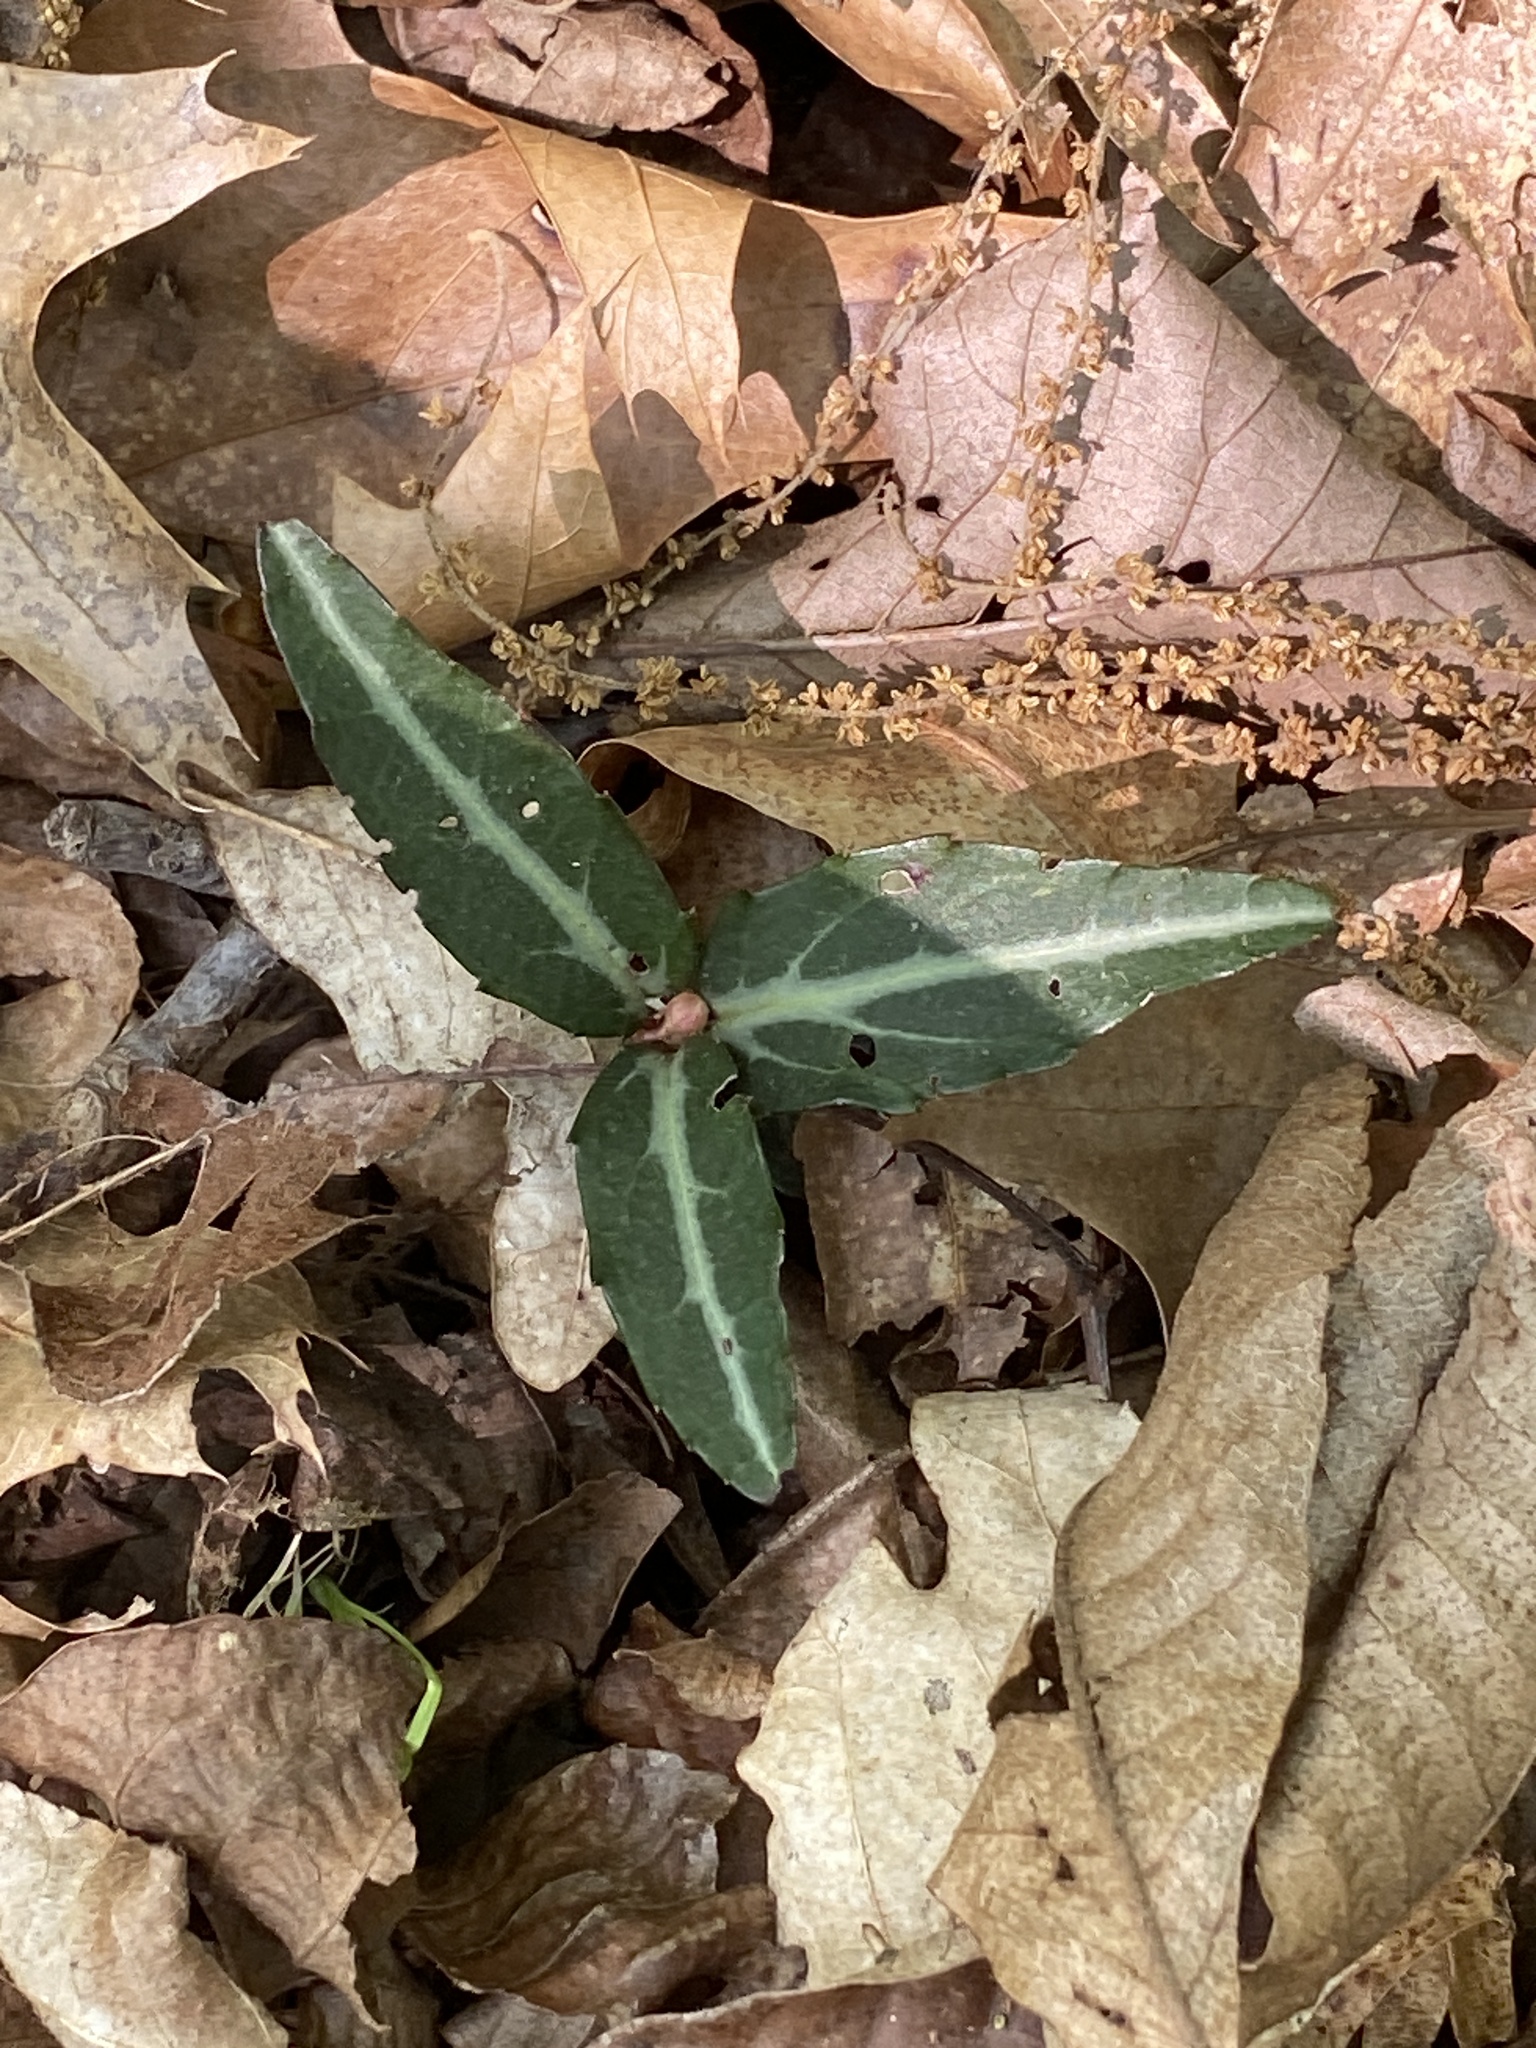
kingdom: Plantae
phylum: Tracheophyta
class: Magnoliopsida
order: Ericales
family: Ericaceae
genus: Chimaphila
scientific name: Chimaphila maculata
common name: Spotted pipsissewa
